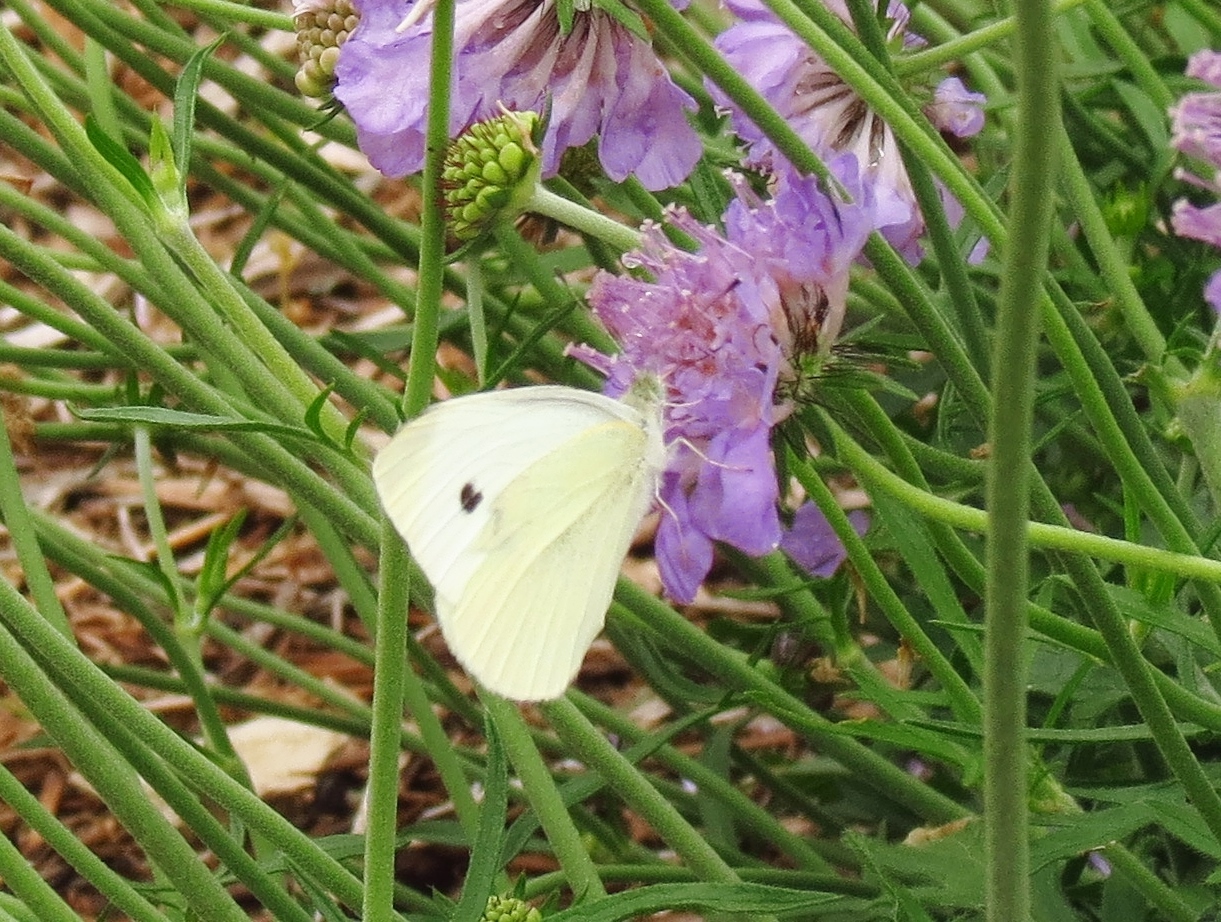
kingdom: Animalia
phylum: Arthropoda
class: Insecta
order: Lepidoptera
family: Pieridae
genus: Pieris
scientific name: Pieris rapae
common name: Small white
